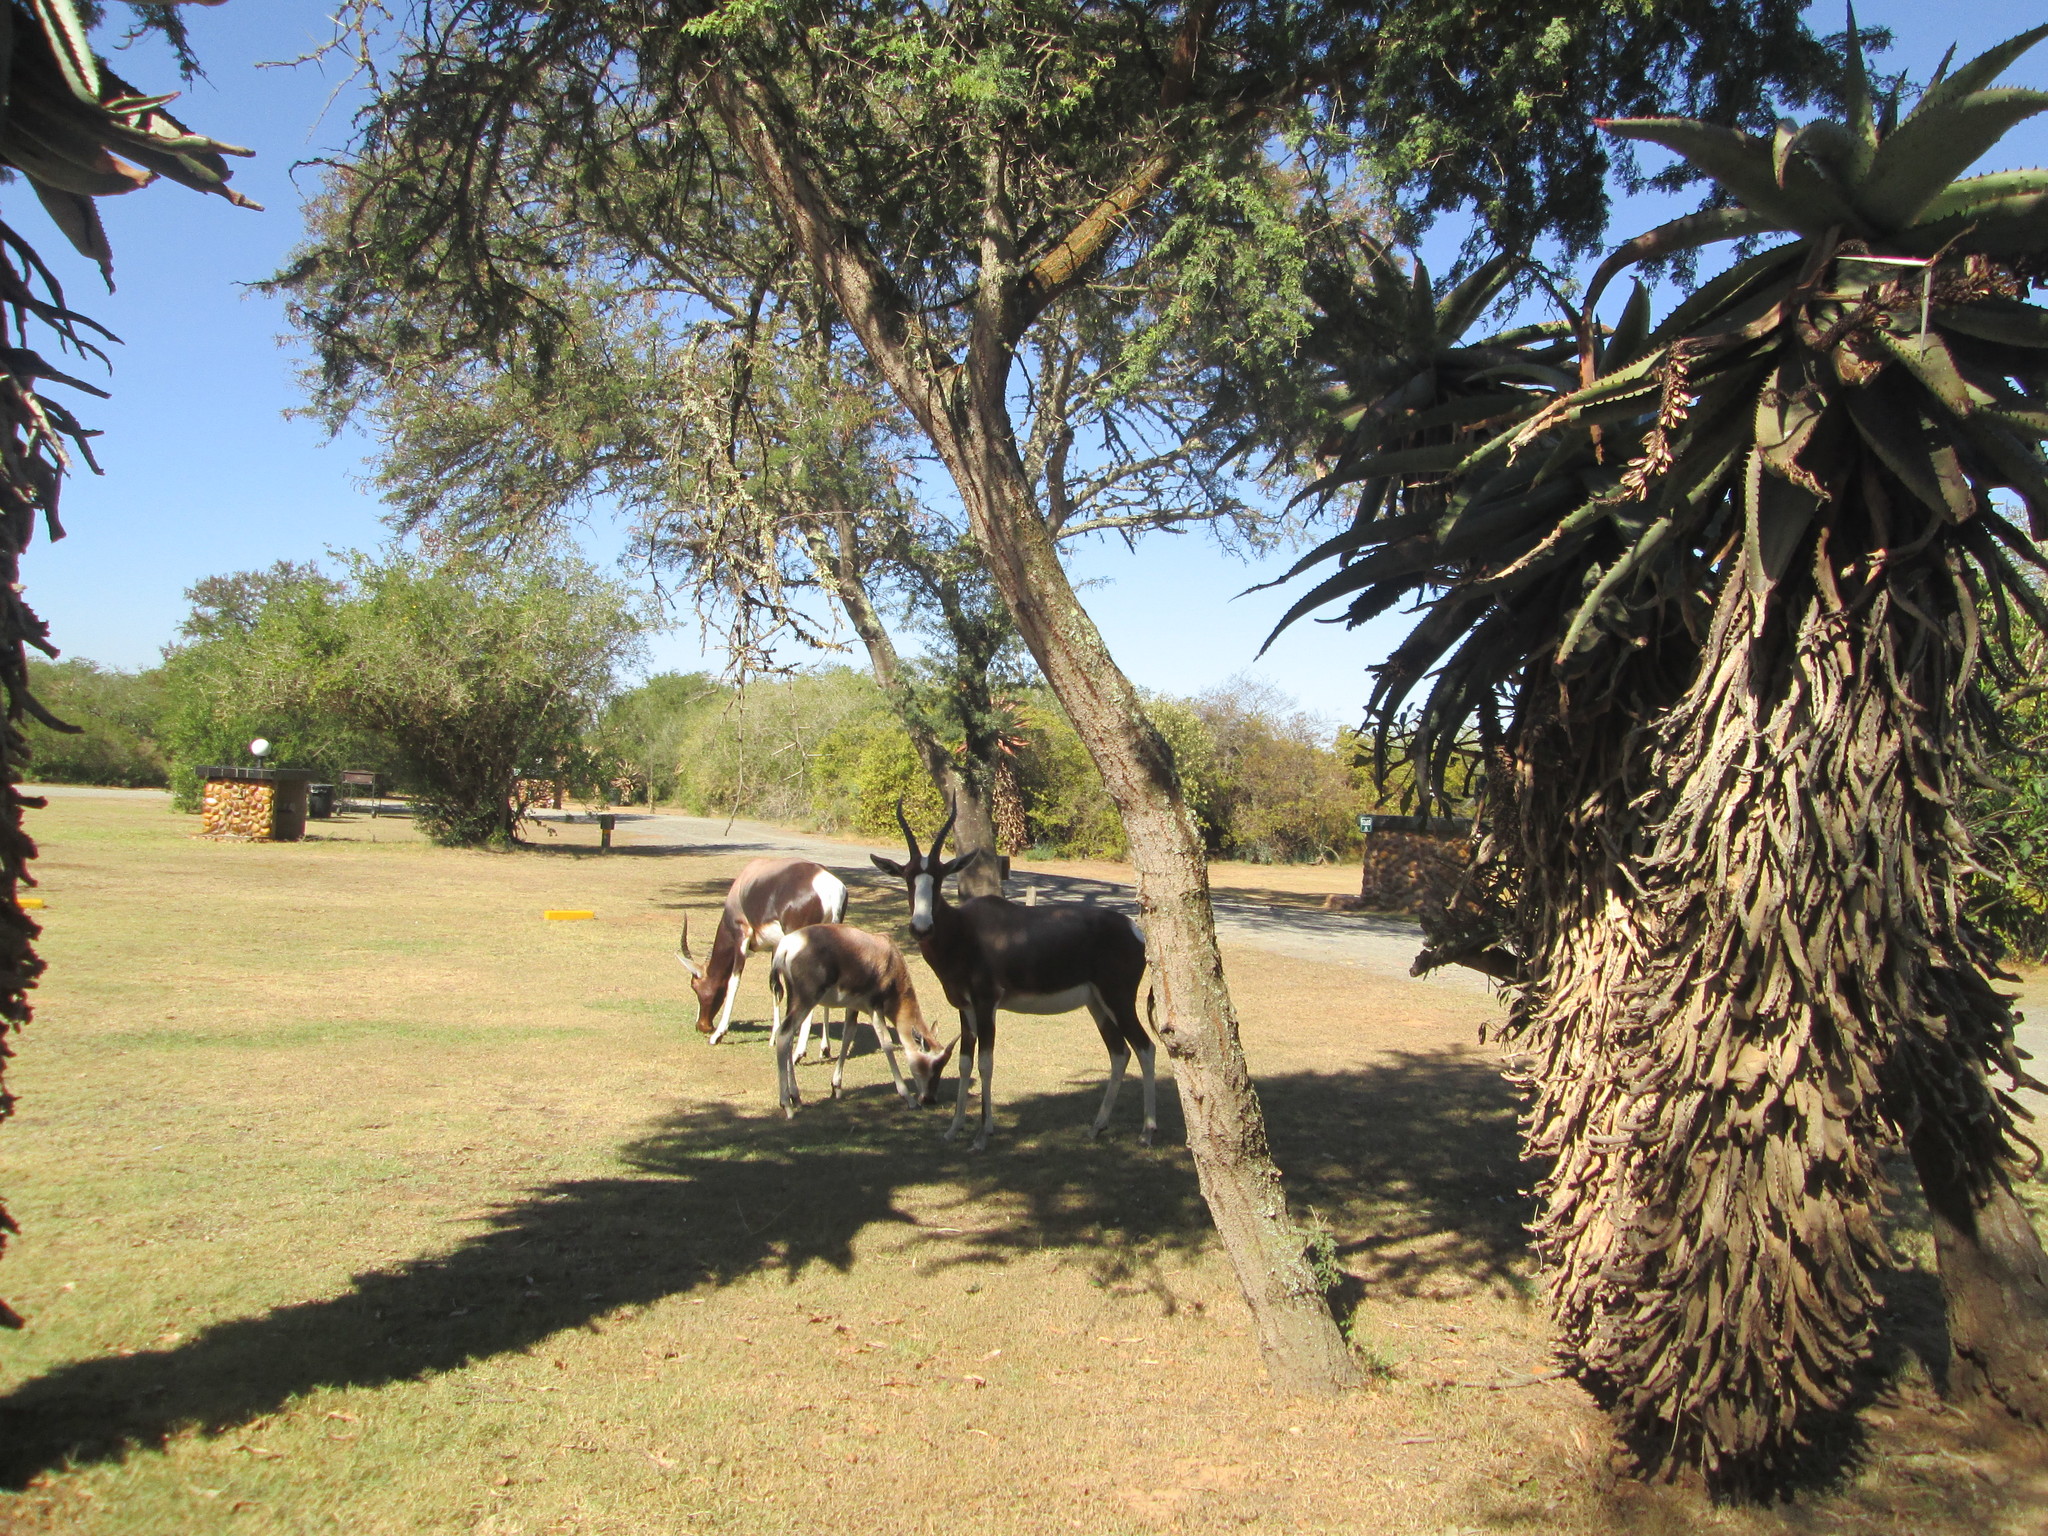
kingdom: Animalia
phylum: Chordata
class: Mammalia
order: Artiodactyla
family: Bovidae
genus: Damaliscus
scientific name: Damaliscus pygargus
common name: Bontebok
